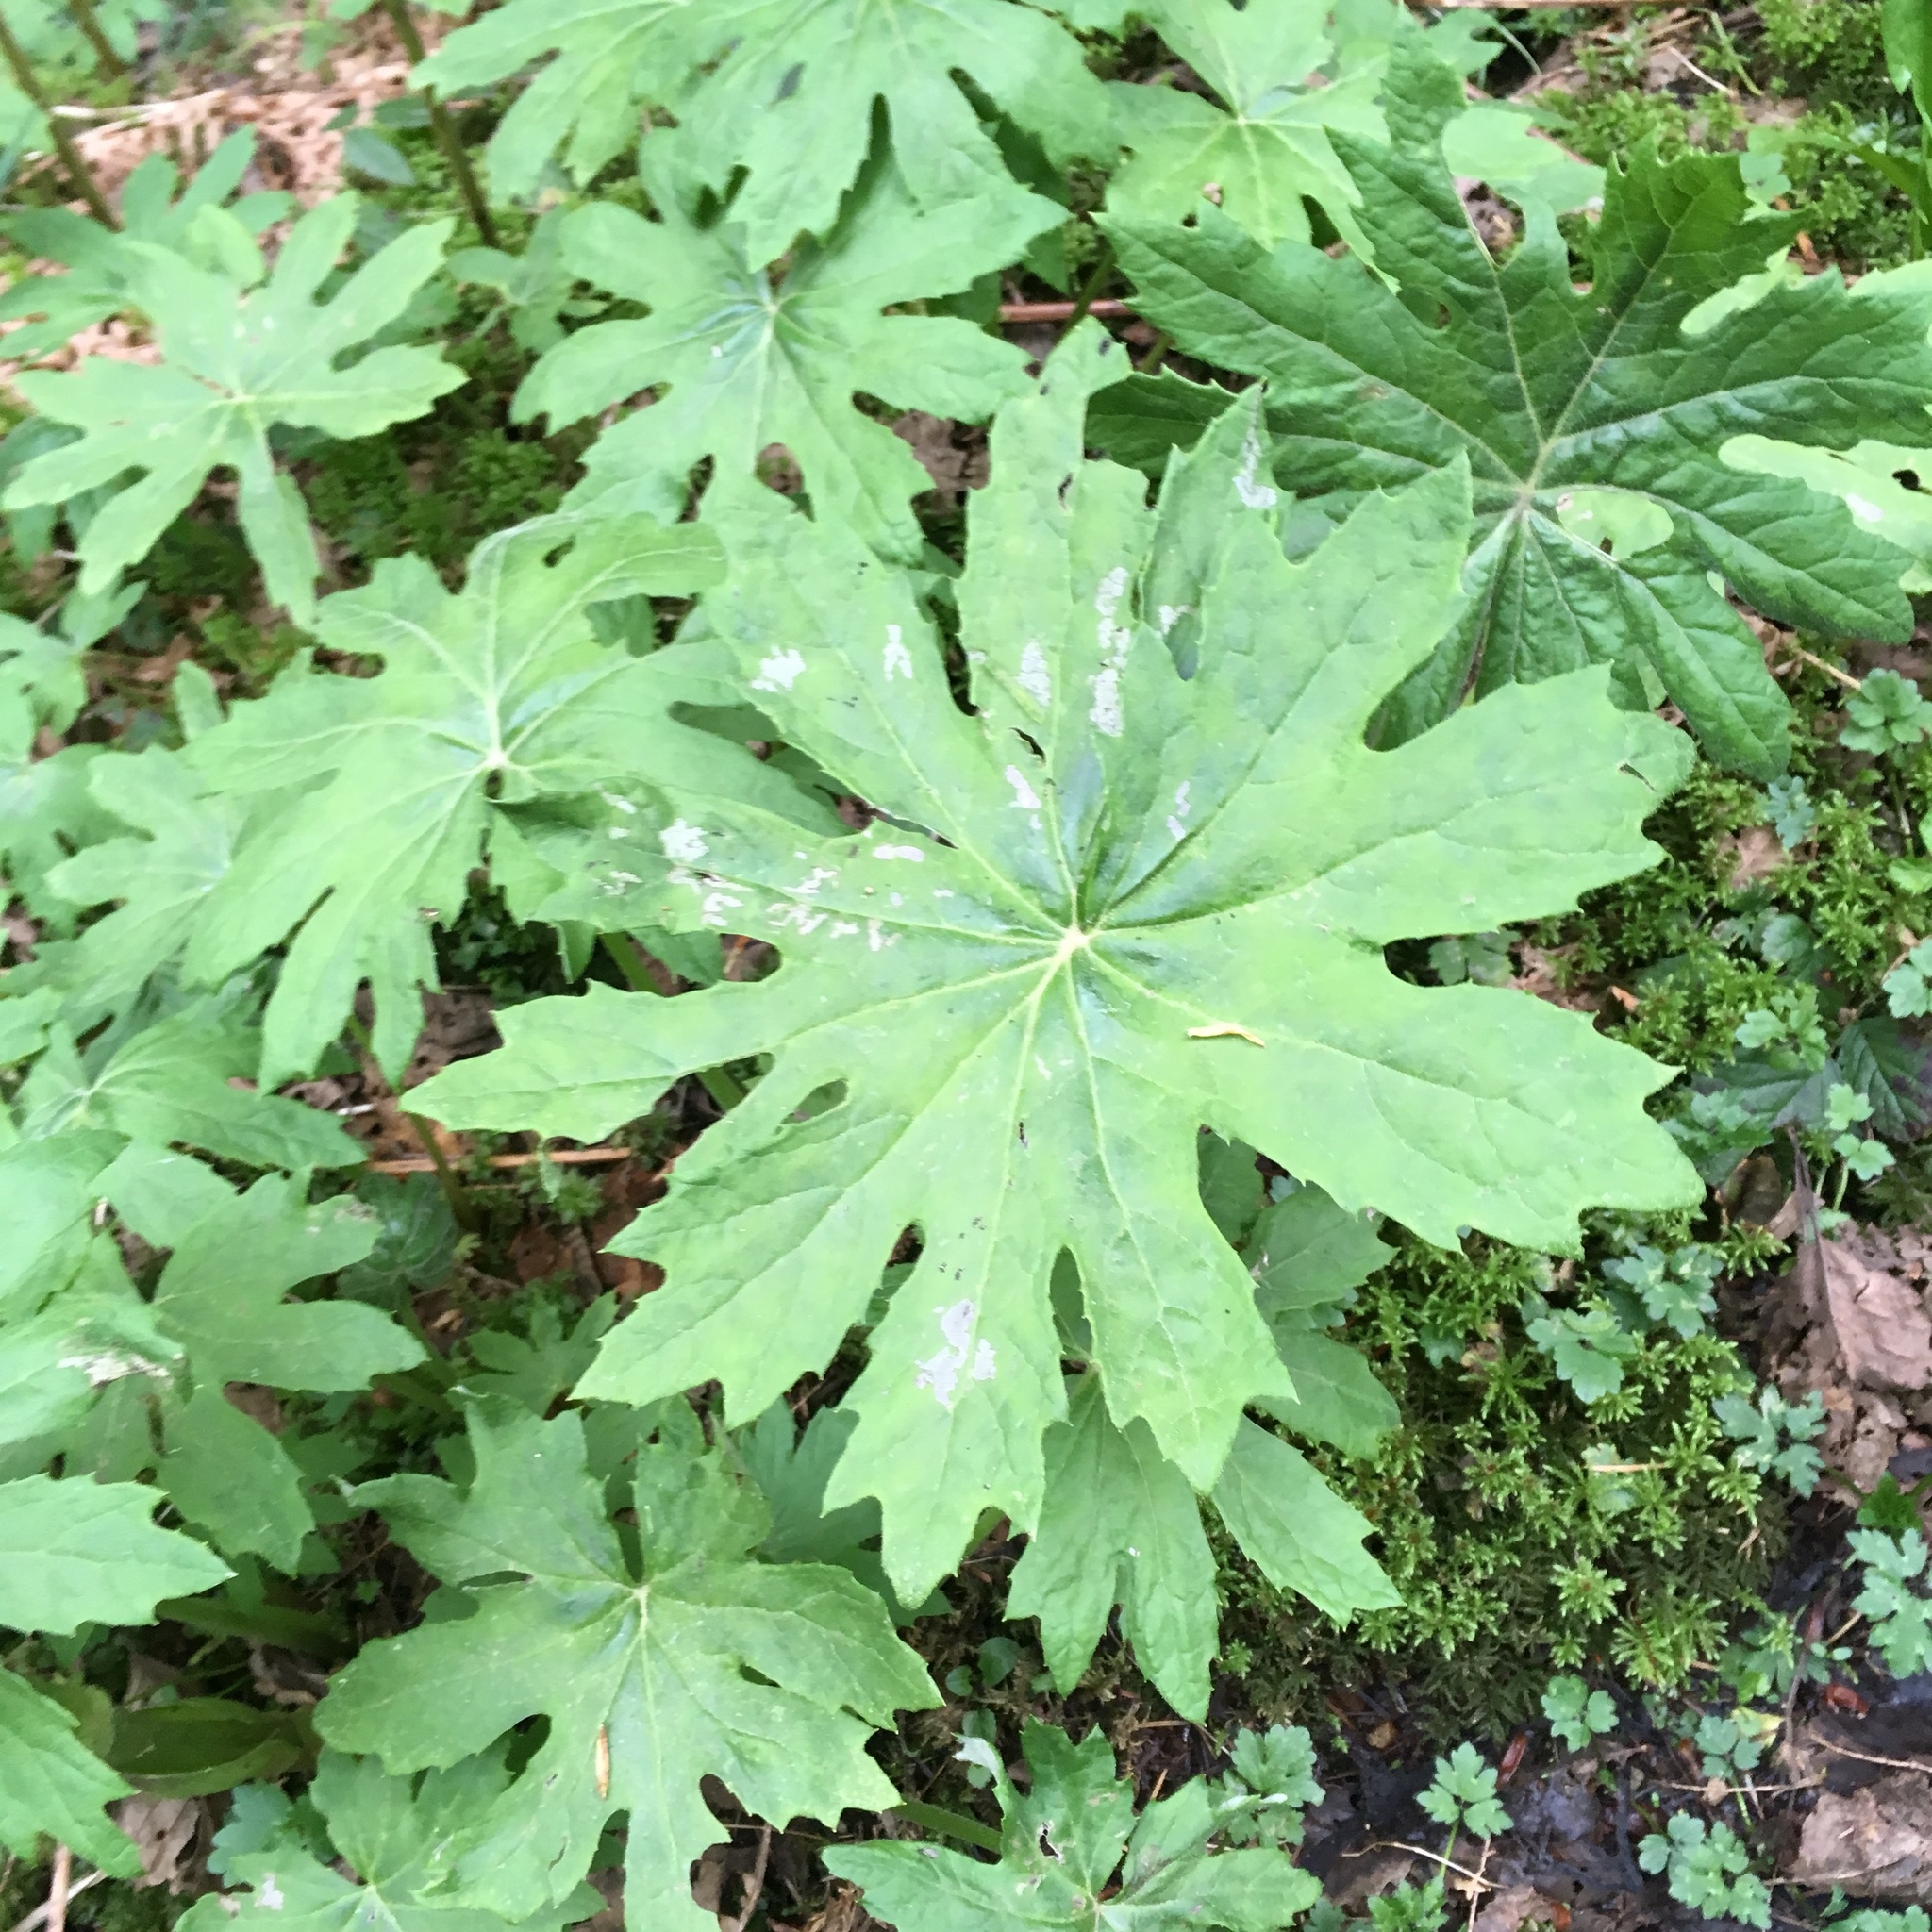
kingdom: Plantae
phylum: Tracheophyta
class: Magnoliopsida
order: Asterales
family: Asteraceae
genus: Petasites
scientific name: Petasites frigidus
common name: Arctic butterbur
